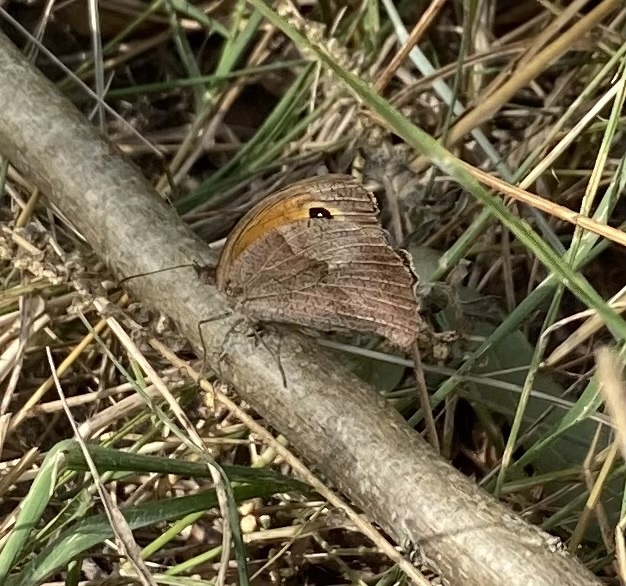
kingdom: Animalia
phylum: Arthropoda
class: Insecta
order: Lepidoptera
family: Nymphalidae
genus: Maniola
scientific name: Maniola jurtina
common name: Meadow brown
